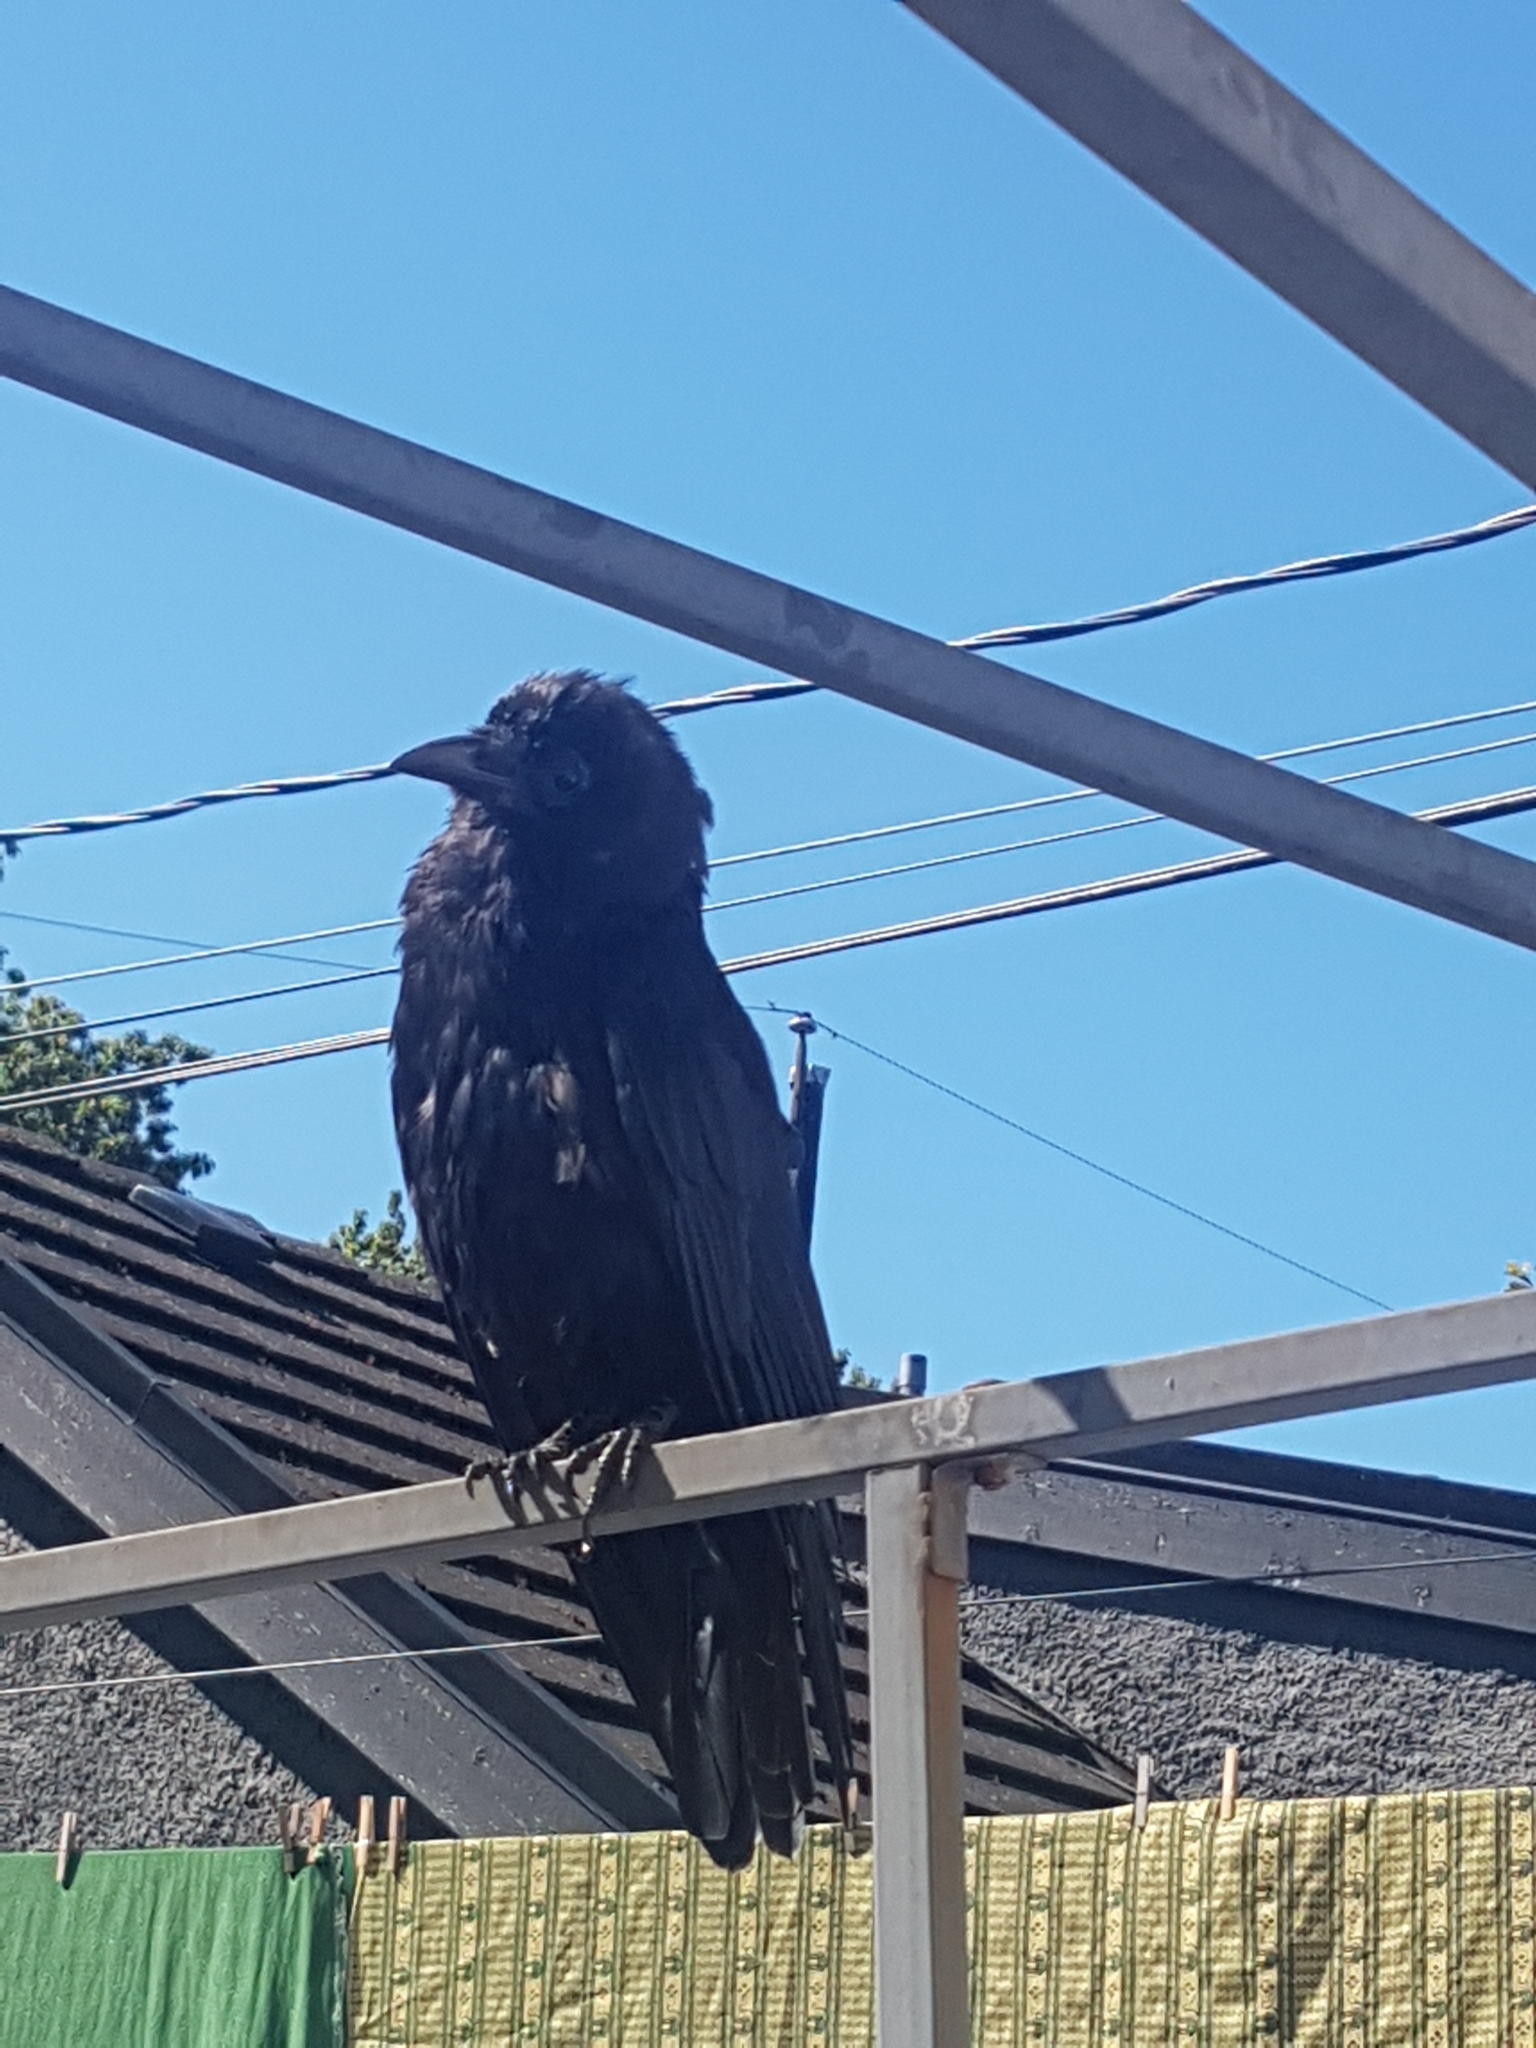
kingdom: Animalia
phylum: Chordata
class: Aves
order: Passeriformes
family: Corvidae
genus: Corvus
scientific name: Corvus brachyrhynchos
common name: American crow
